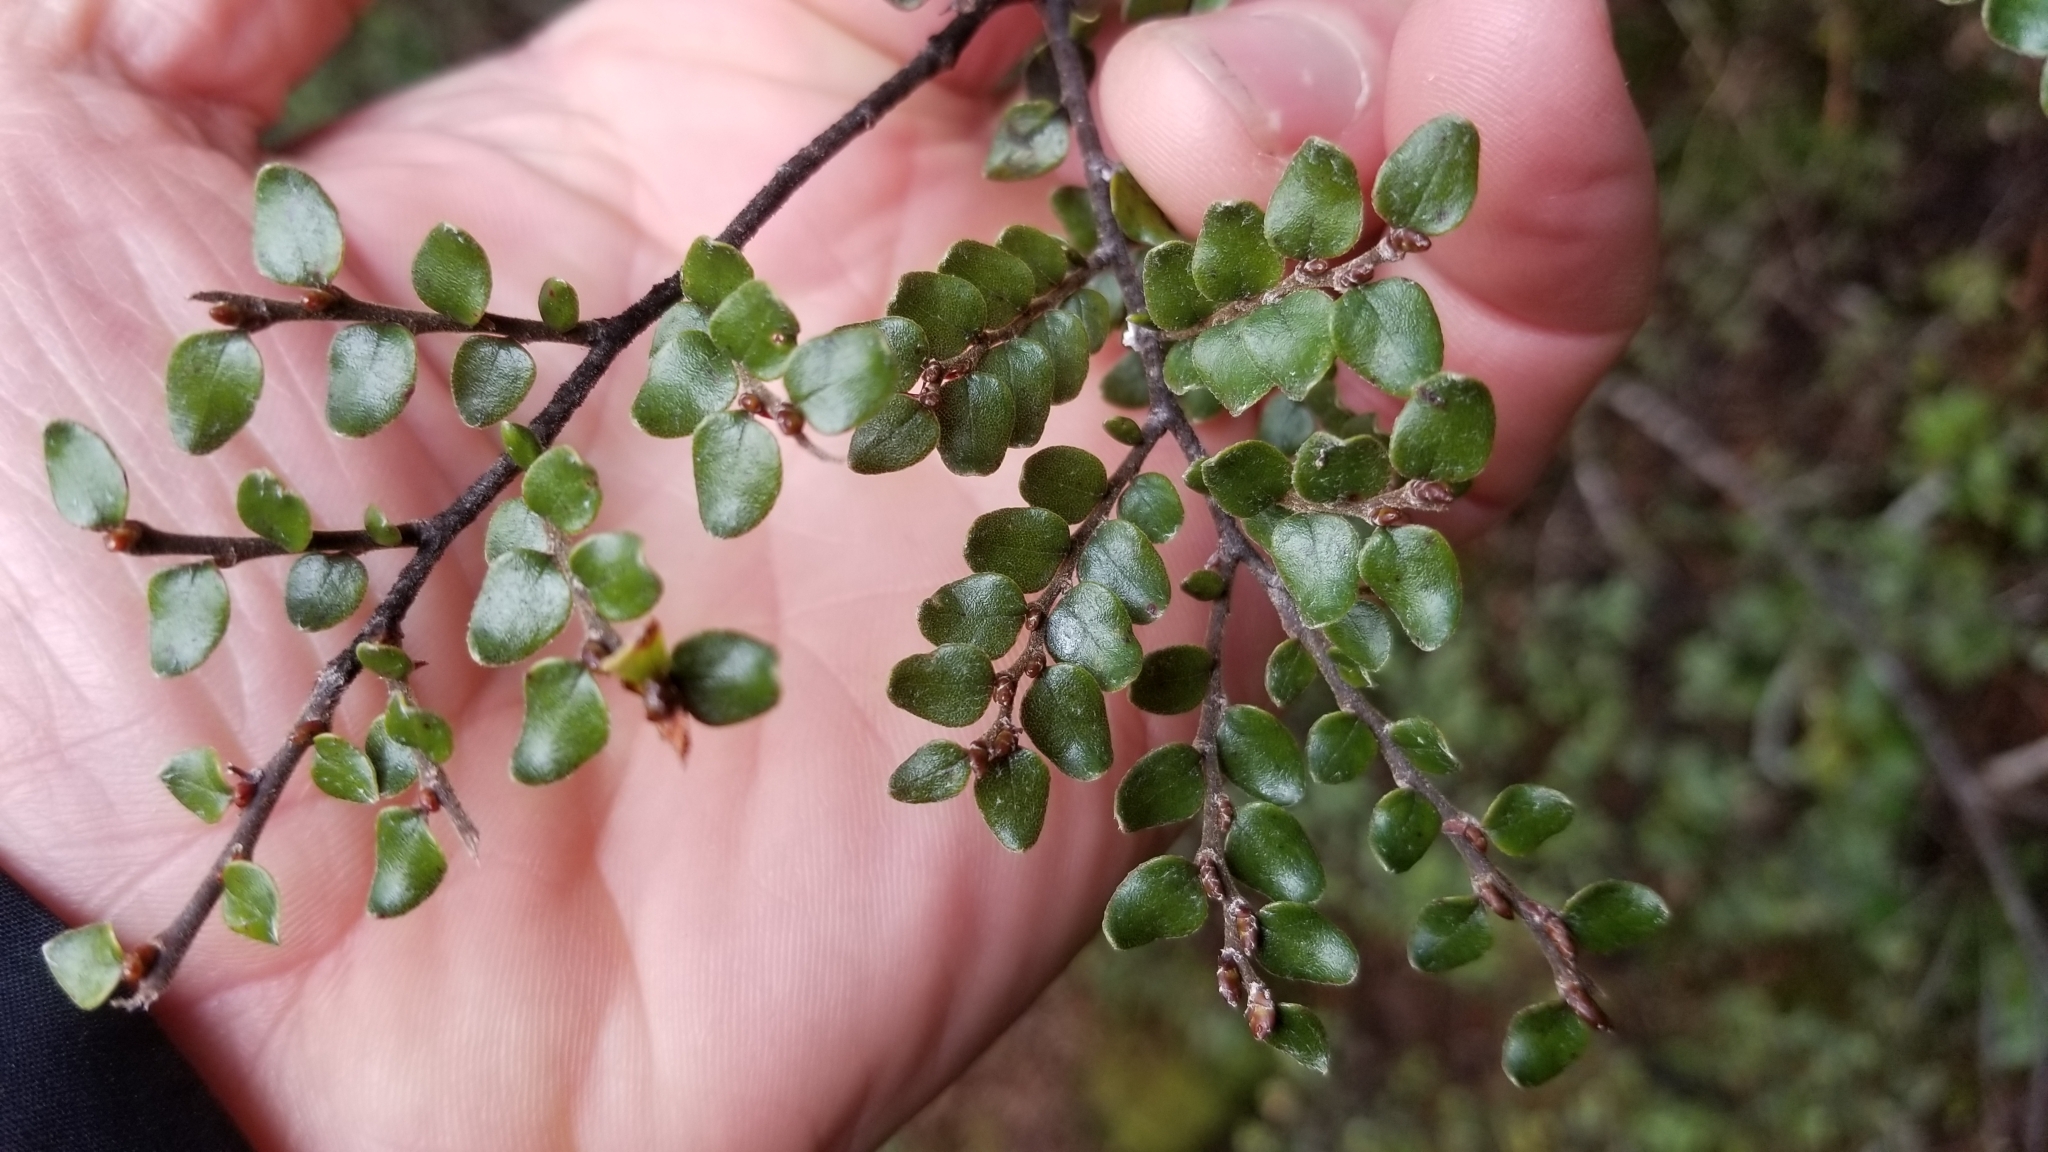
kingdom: Plantae
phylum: Tracheophyta
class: Magnoliopsida
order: Fagales
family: Nothofagaceae
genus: Nothofagus
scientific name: Nothofagus cliffortioides
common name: Mountain beech
